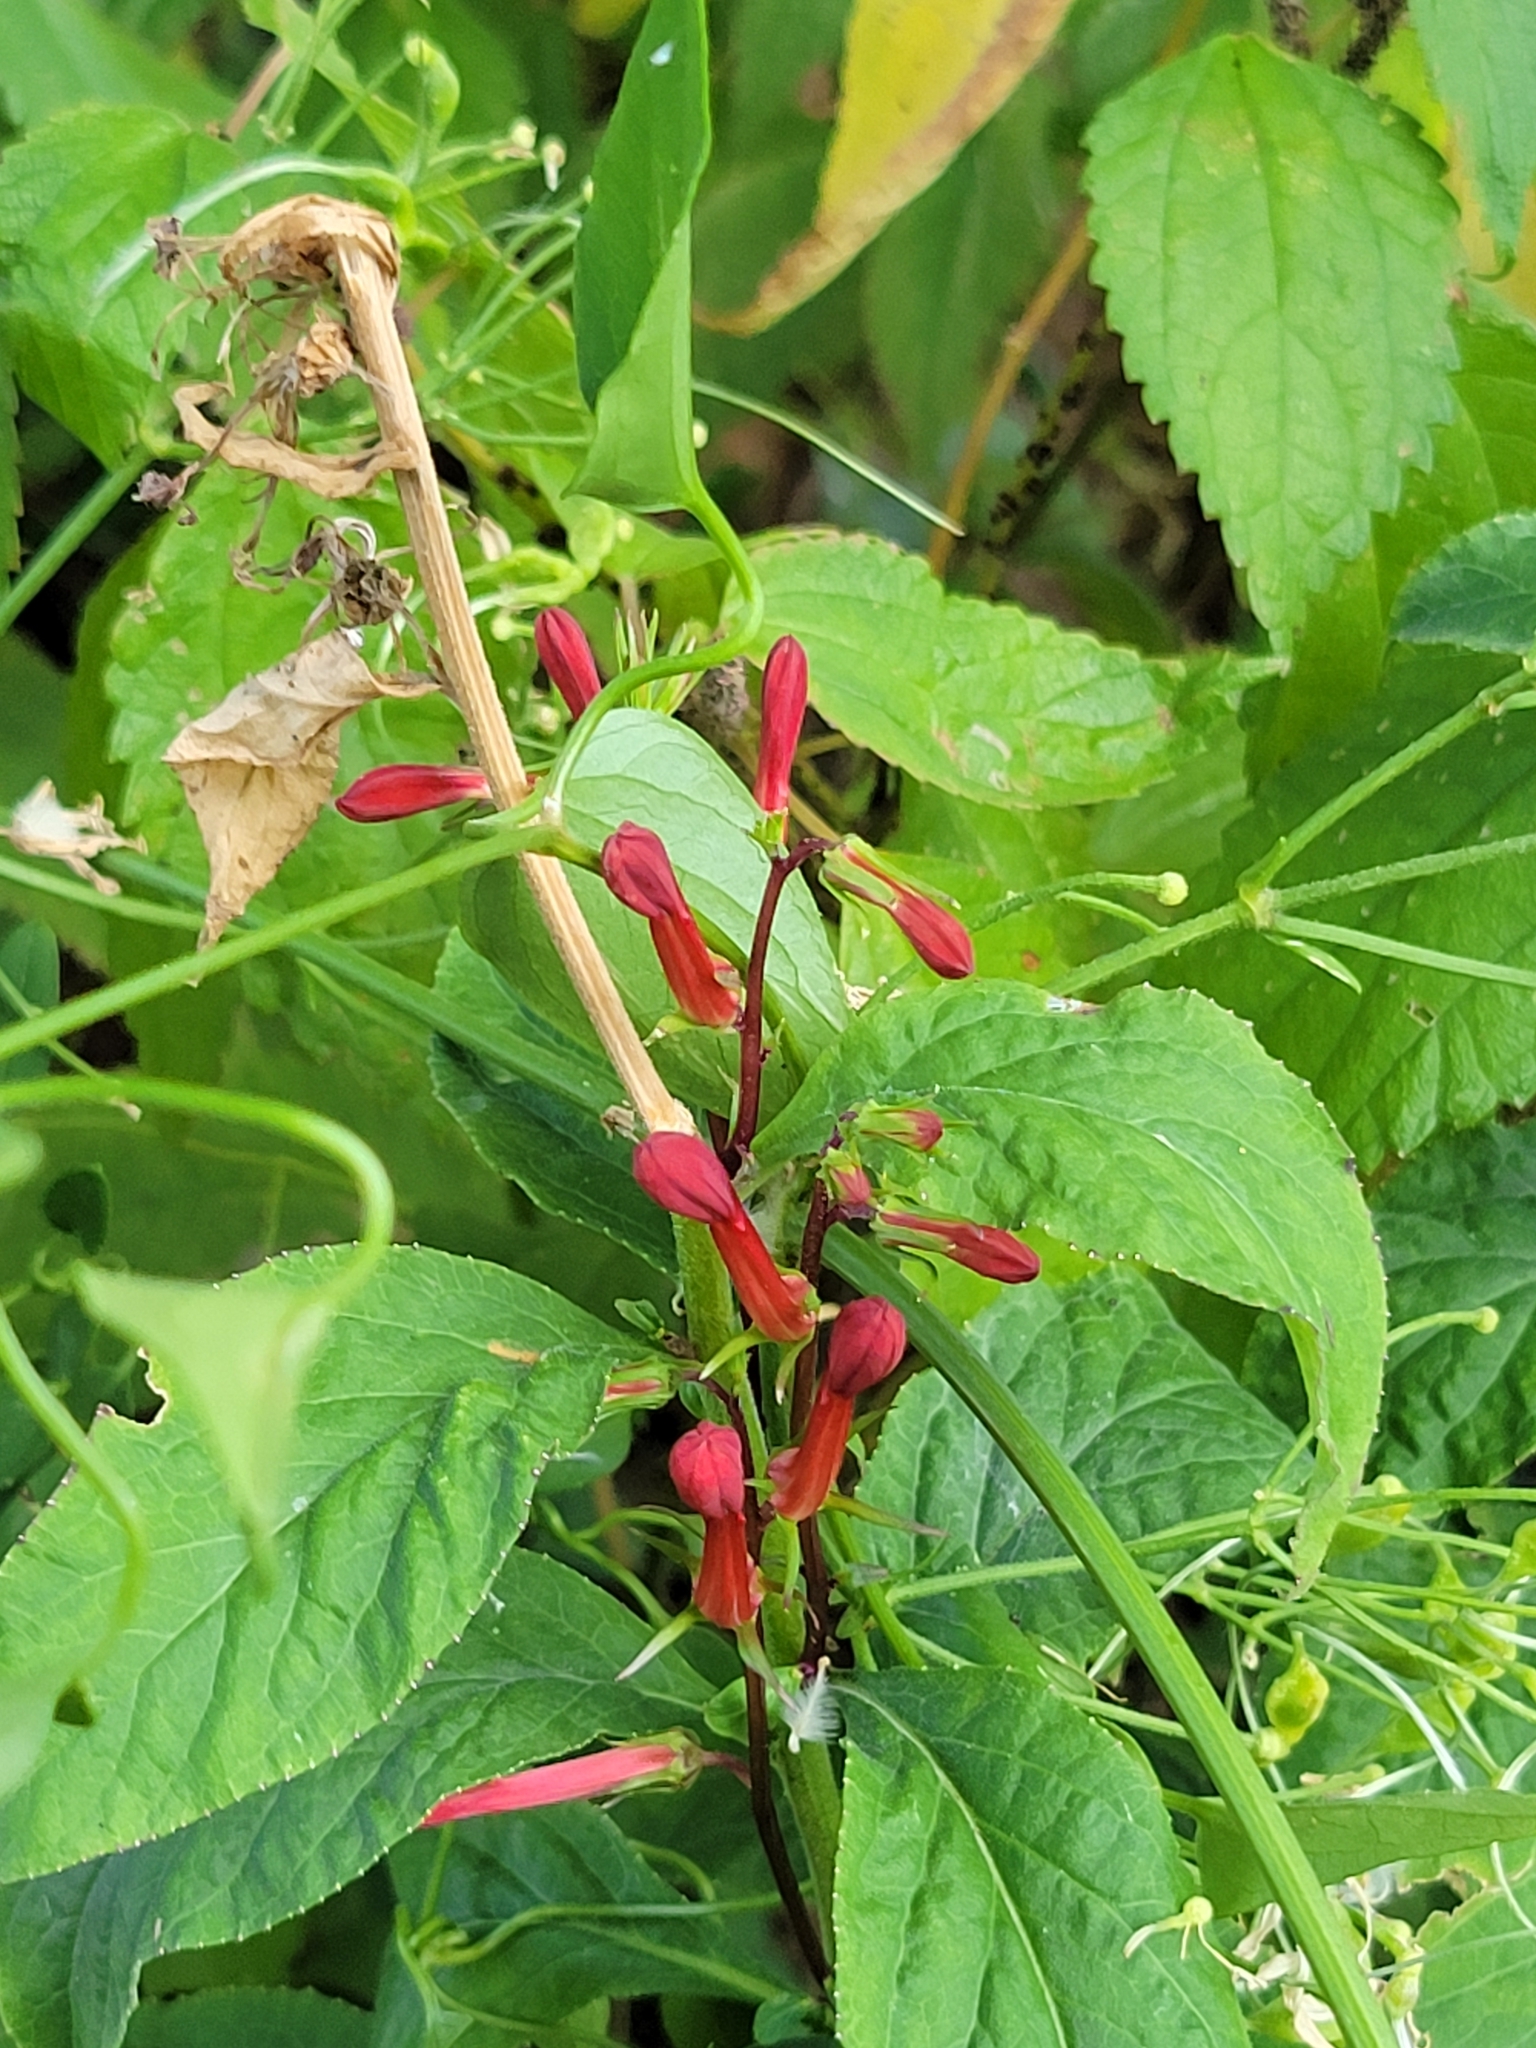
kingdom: Plantae
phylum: Tracheophyta
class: Magnoliopsida
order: Asterales
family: Campanulaceae
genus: Lobelia
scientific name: Lobelia cardinalis
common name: Cardinal flower
